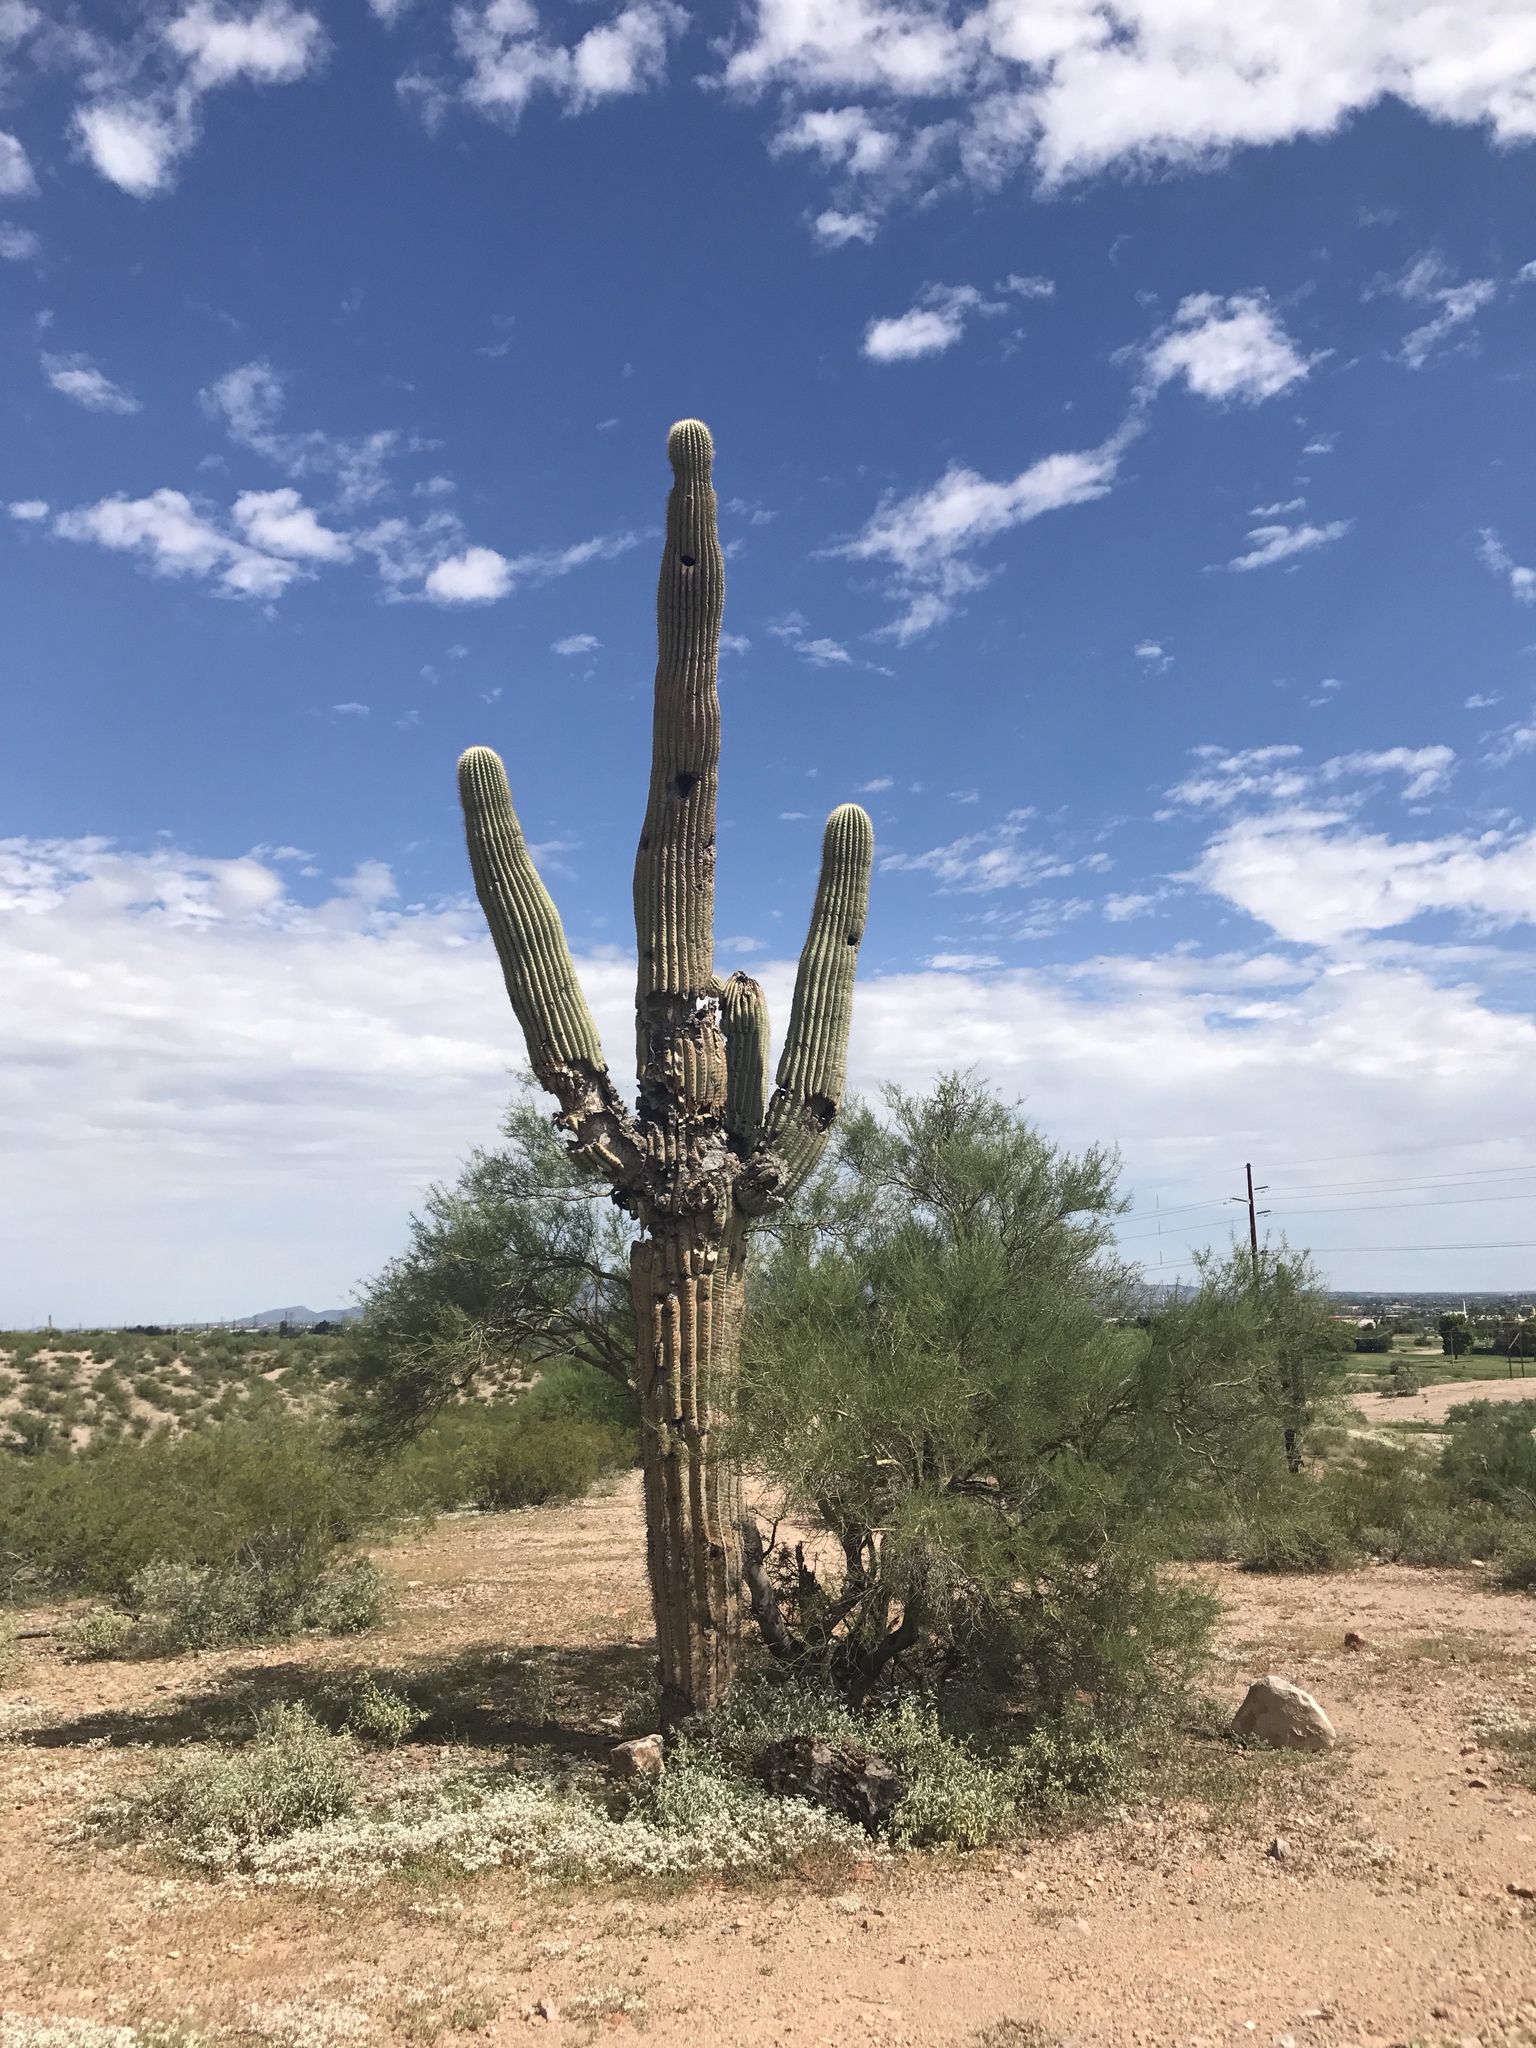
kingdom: Plantae
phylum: Tracheophyta
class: Magnoliopsida
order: Caryophyllales
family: Cactaceae
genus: Carnegiea
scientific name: Carnegiea gigantea
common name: Saguaro
